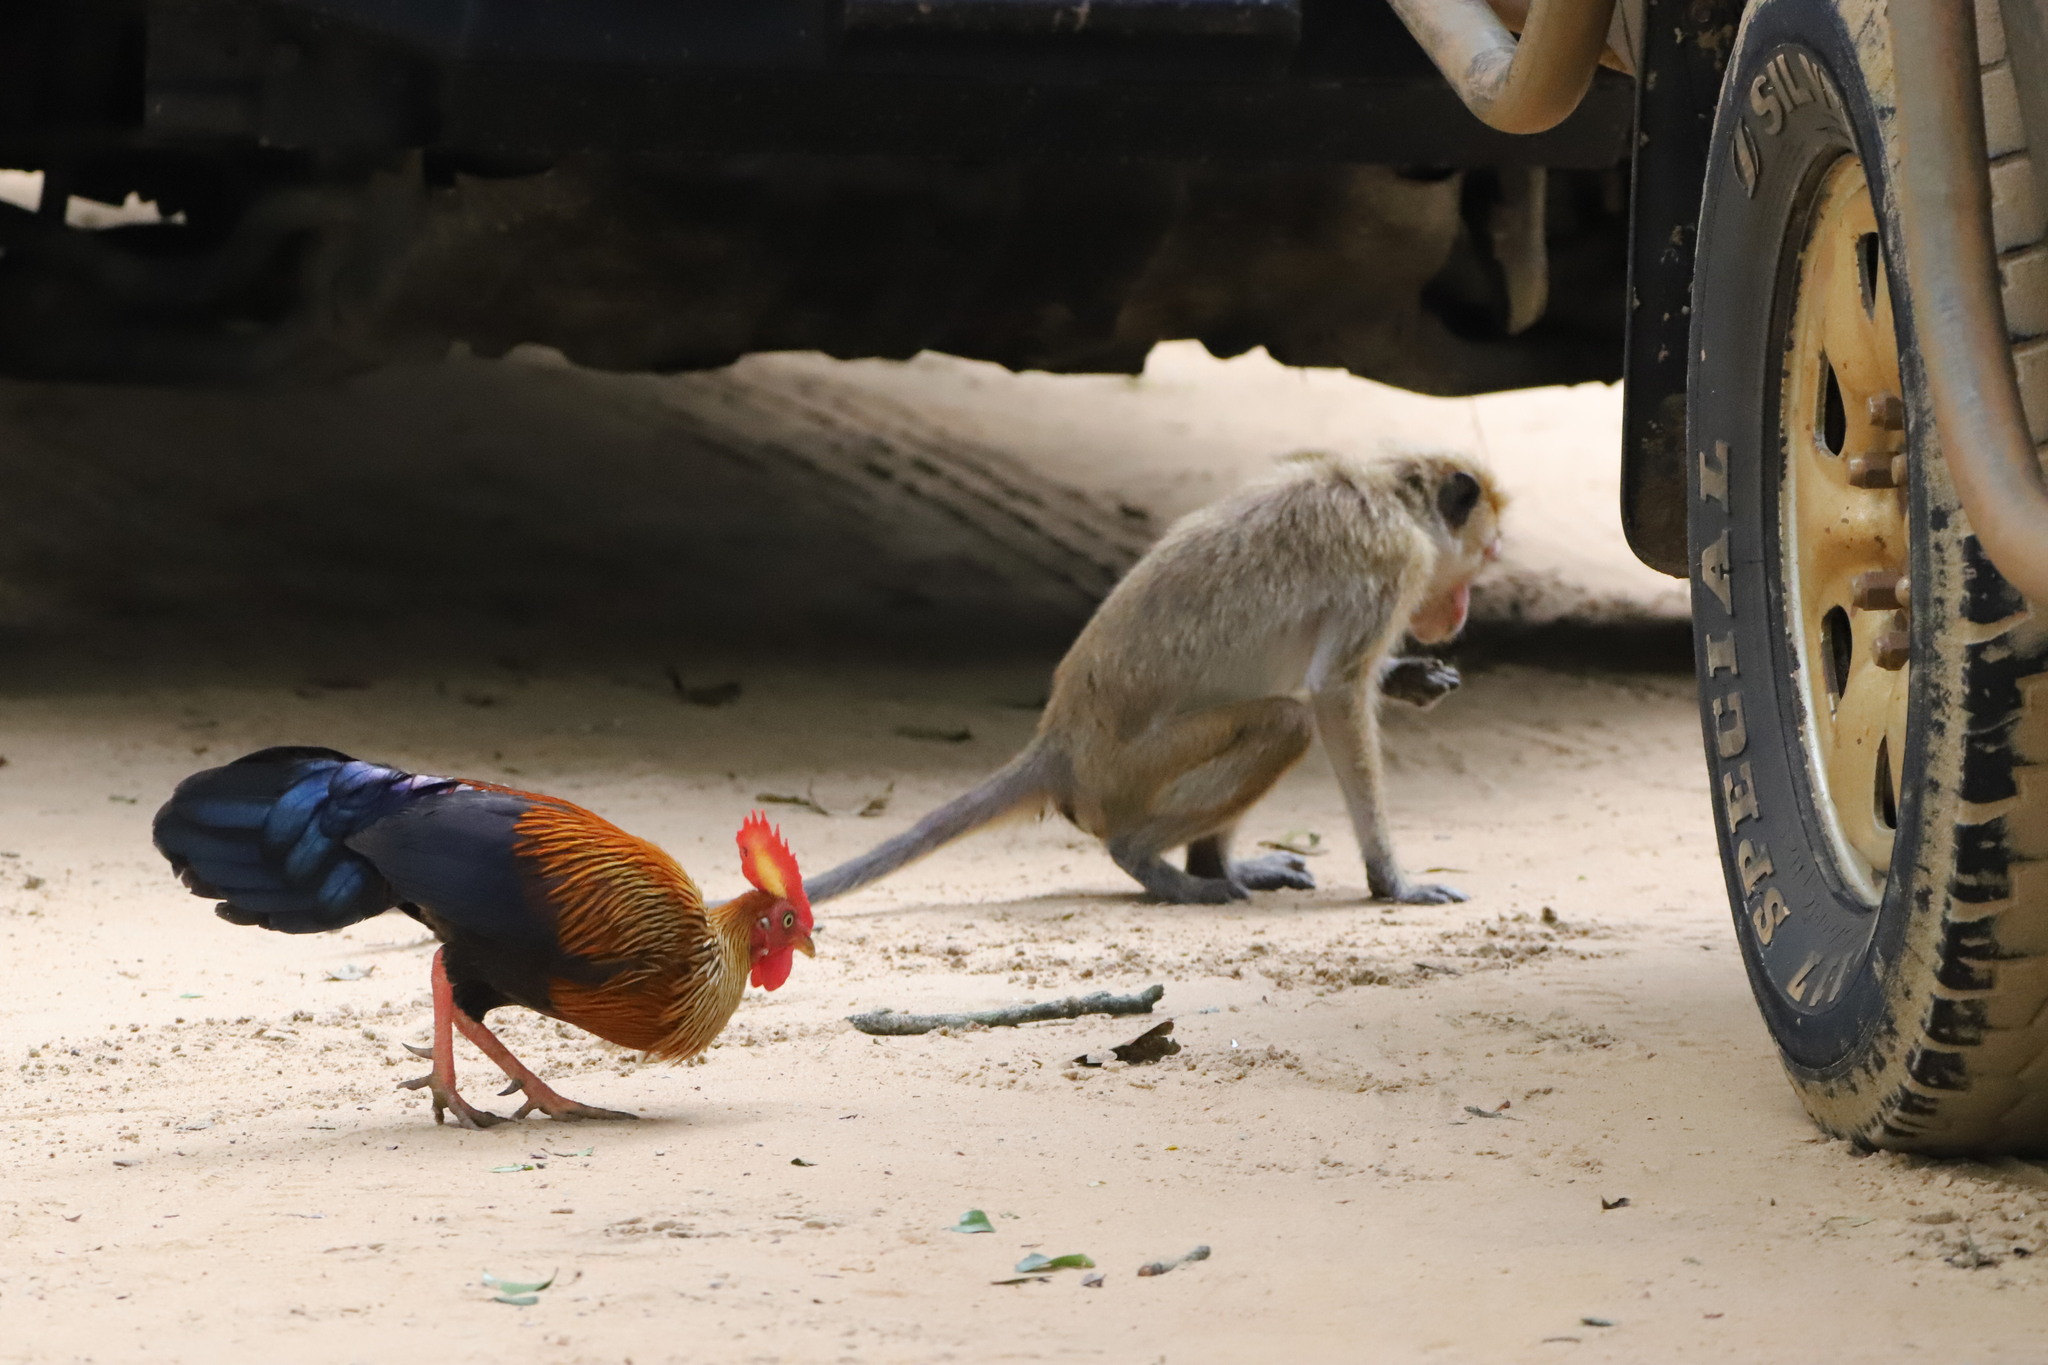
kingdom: Animalia
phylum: Chordata
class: Aves
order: Galliformes
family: Phasianidae
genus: Gallus
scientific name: Gallus lafayettii
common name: Sri lanka junglefowl
